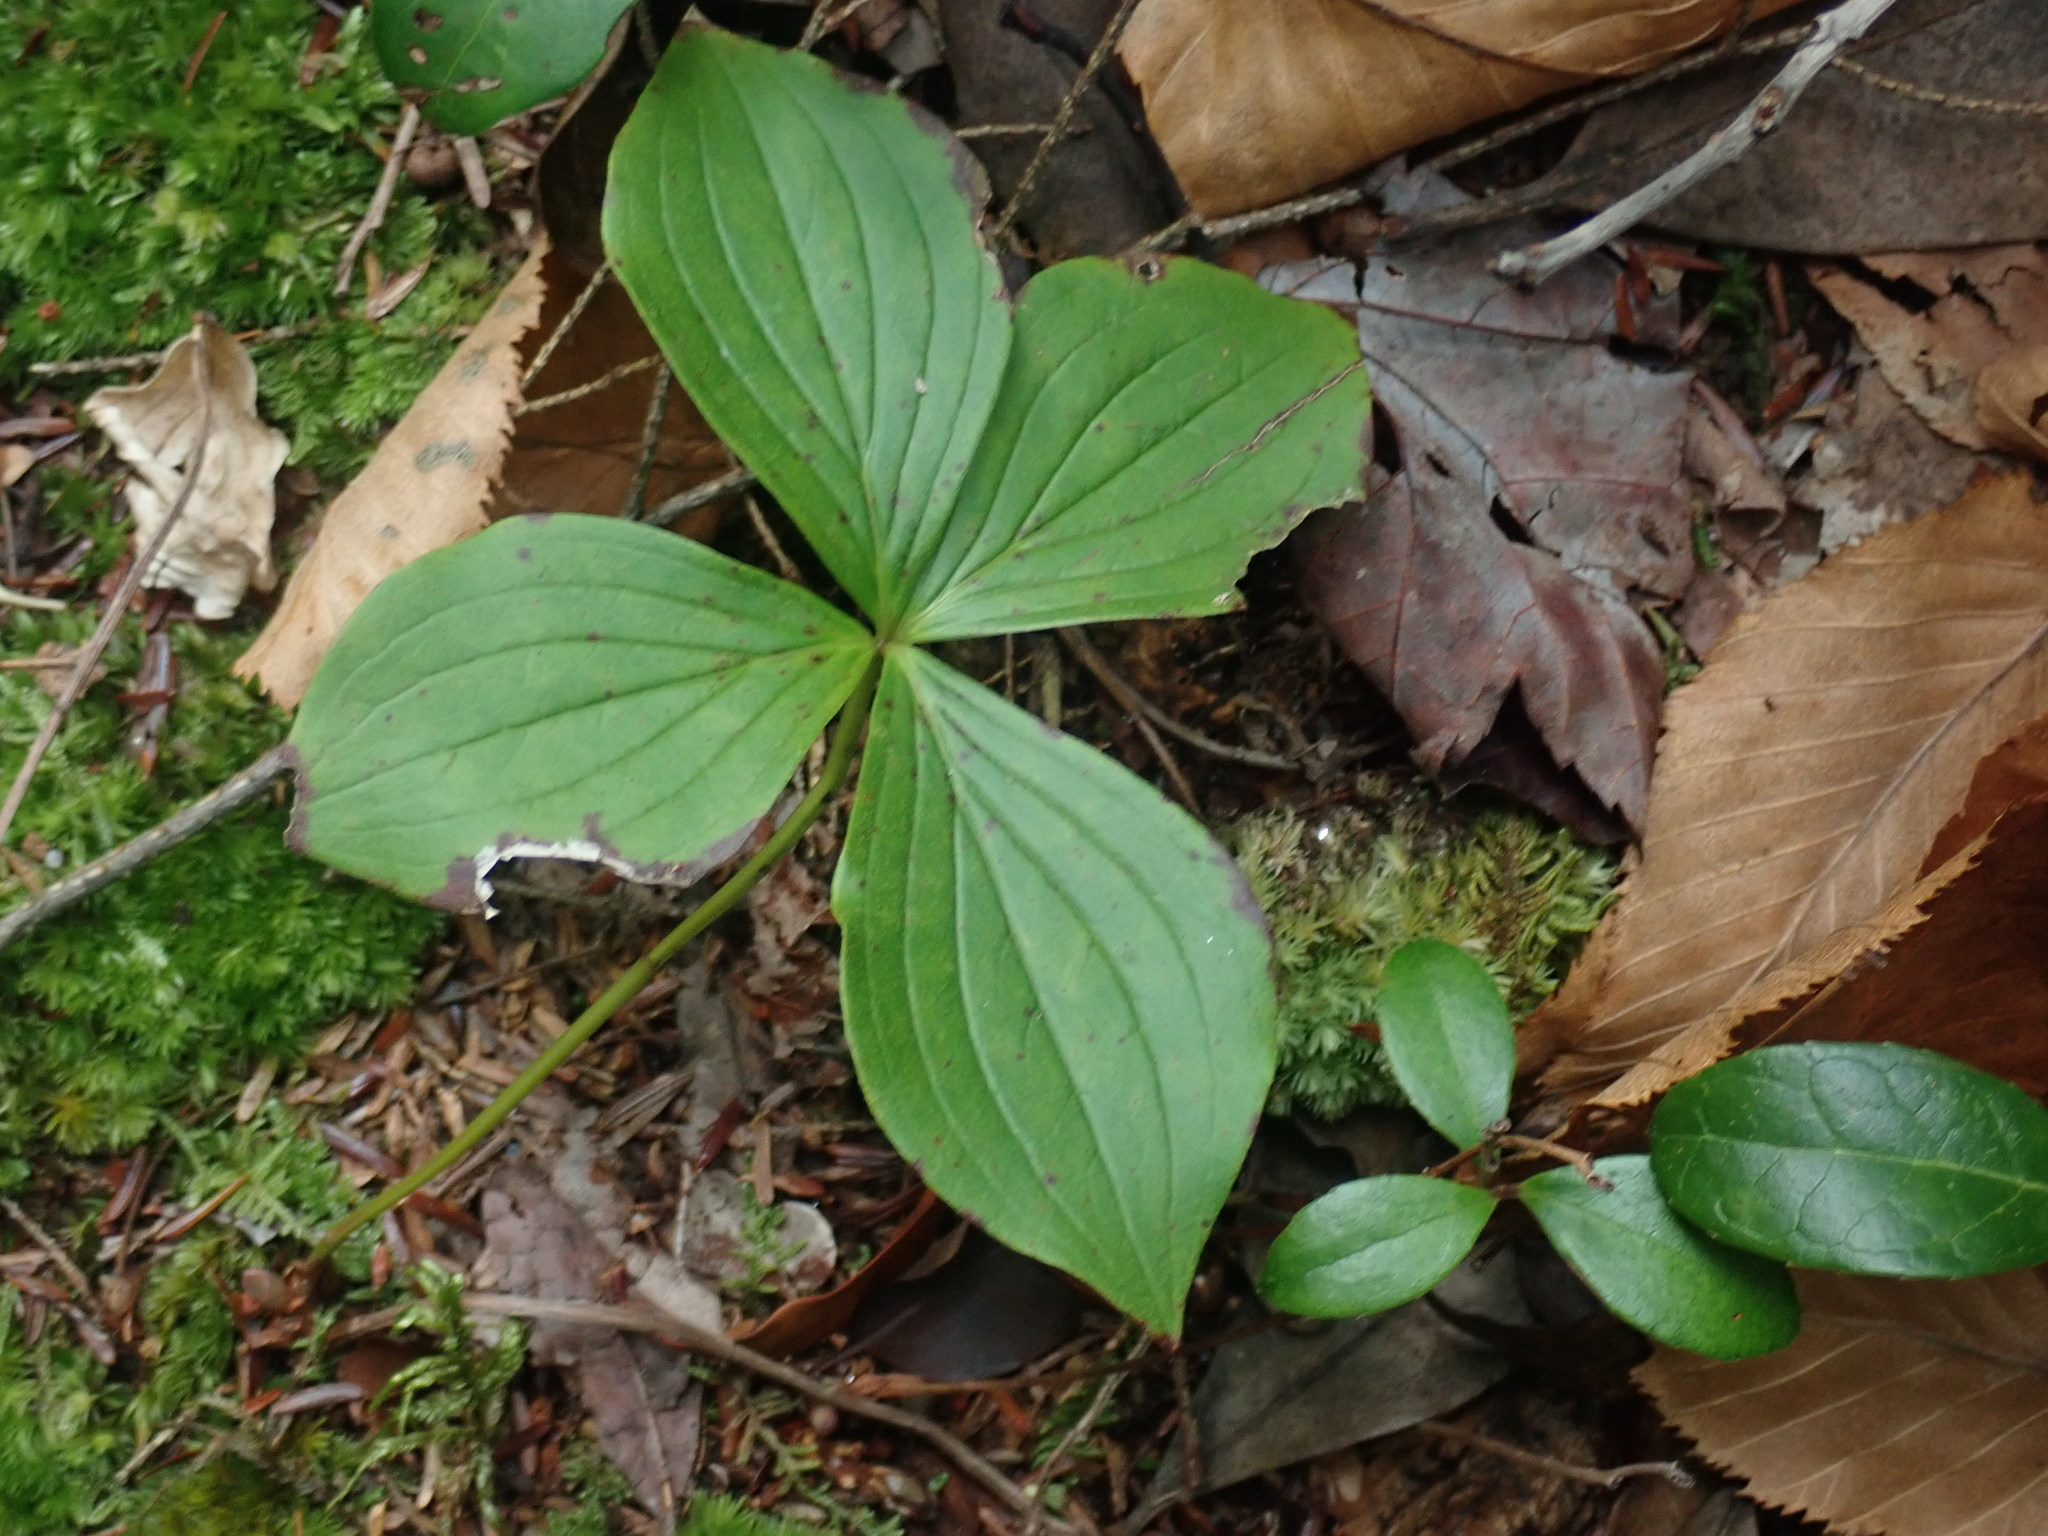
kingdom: Plantae
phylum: Tracheophyta
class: Magnoliopsida
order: Cornales
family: Cornaceae
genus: Cornus
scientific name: Cornus canadensis
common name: Creeping dogwood
